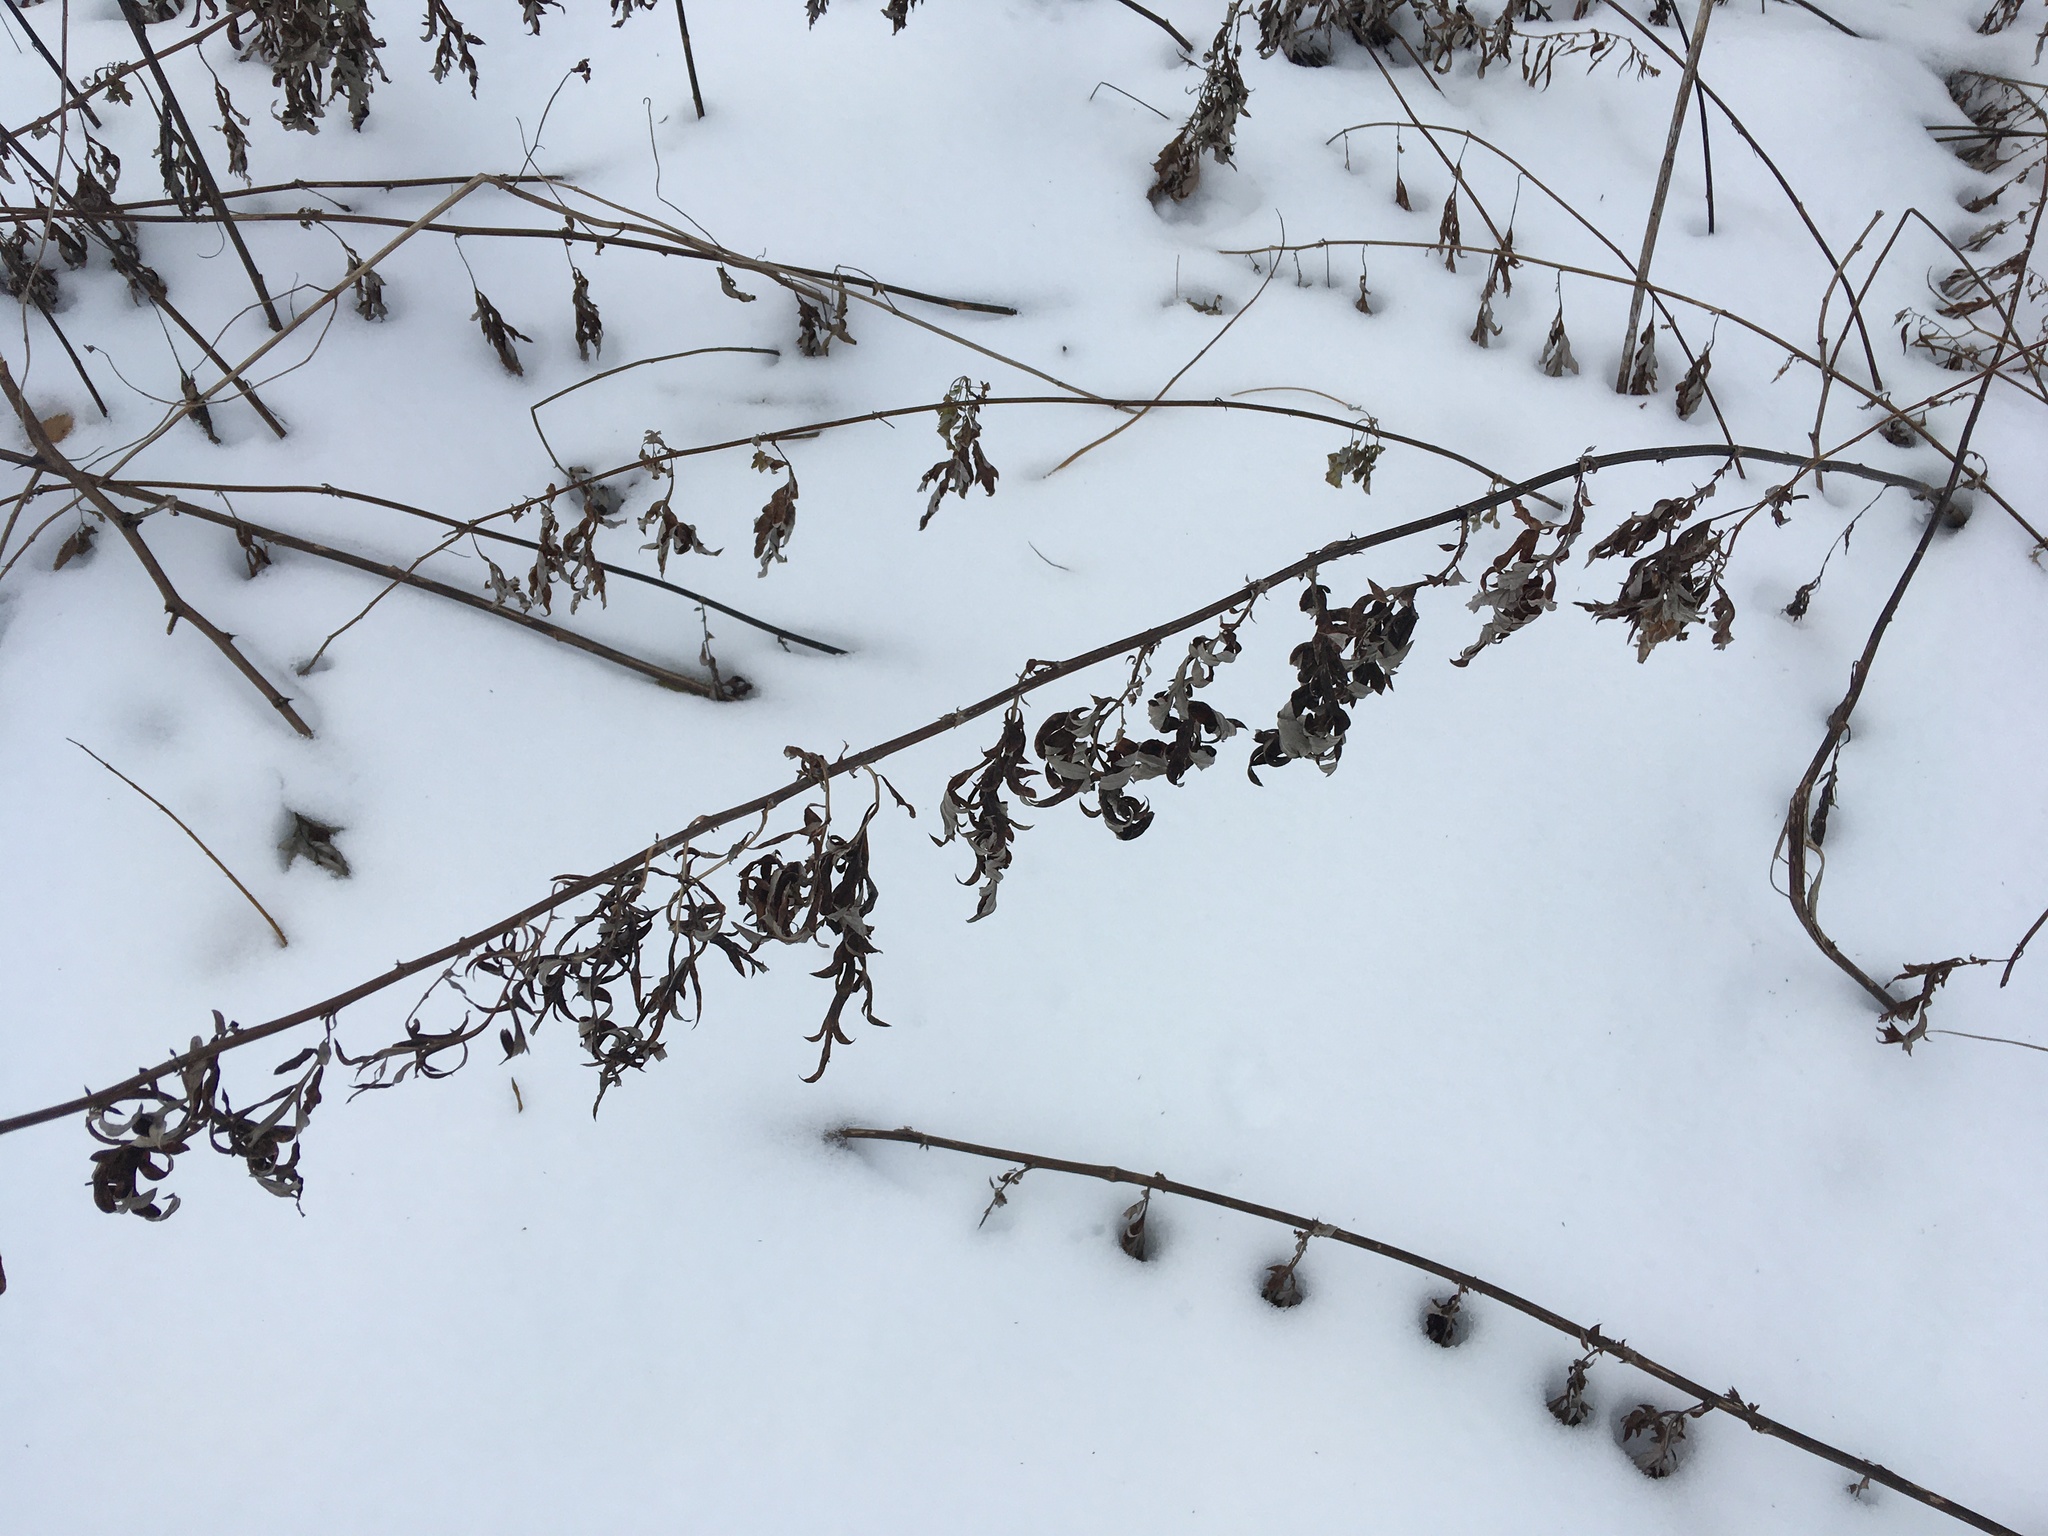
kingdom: Plantae
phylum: Tracheophyta
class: Magnoliopsida
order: Asterales
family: Asteraceae
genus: Artemisia
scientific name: Artemisia vulgaris
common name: Mugwort
